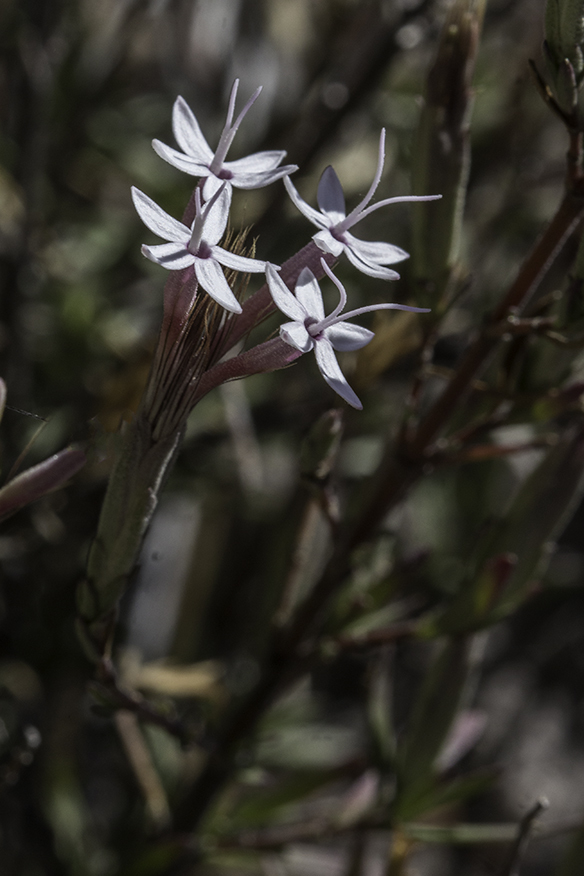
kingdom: Plantae
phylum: Tracheophyta
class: Magnoliopsida
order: Asterales
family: Asteraceae
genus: Carphochaete
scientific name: Carphochaete bigelovii
